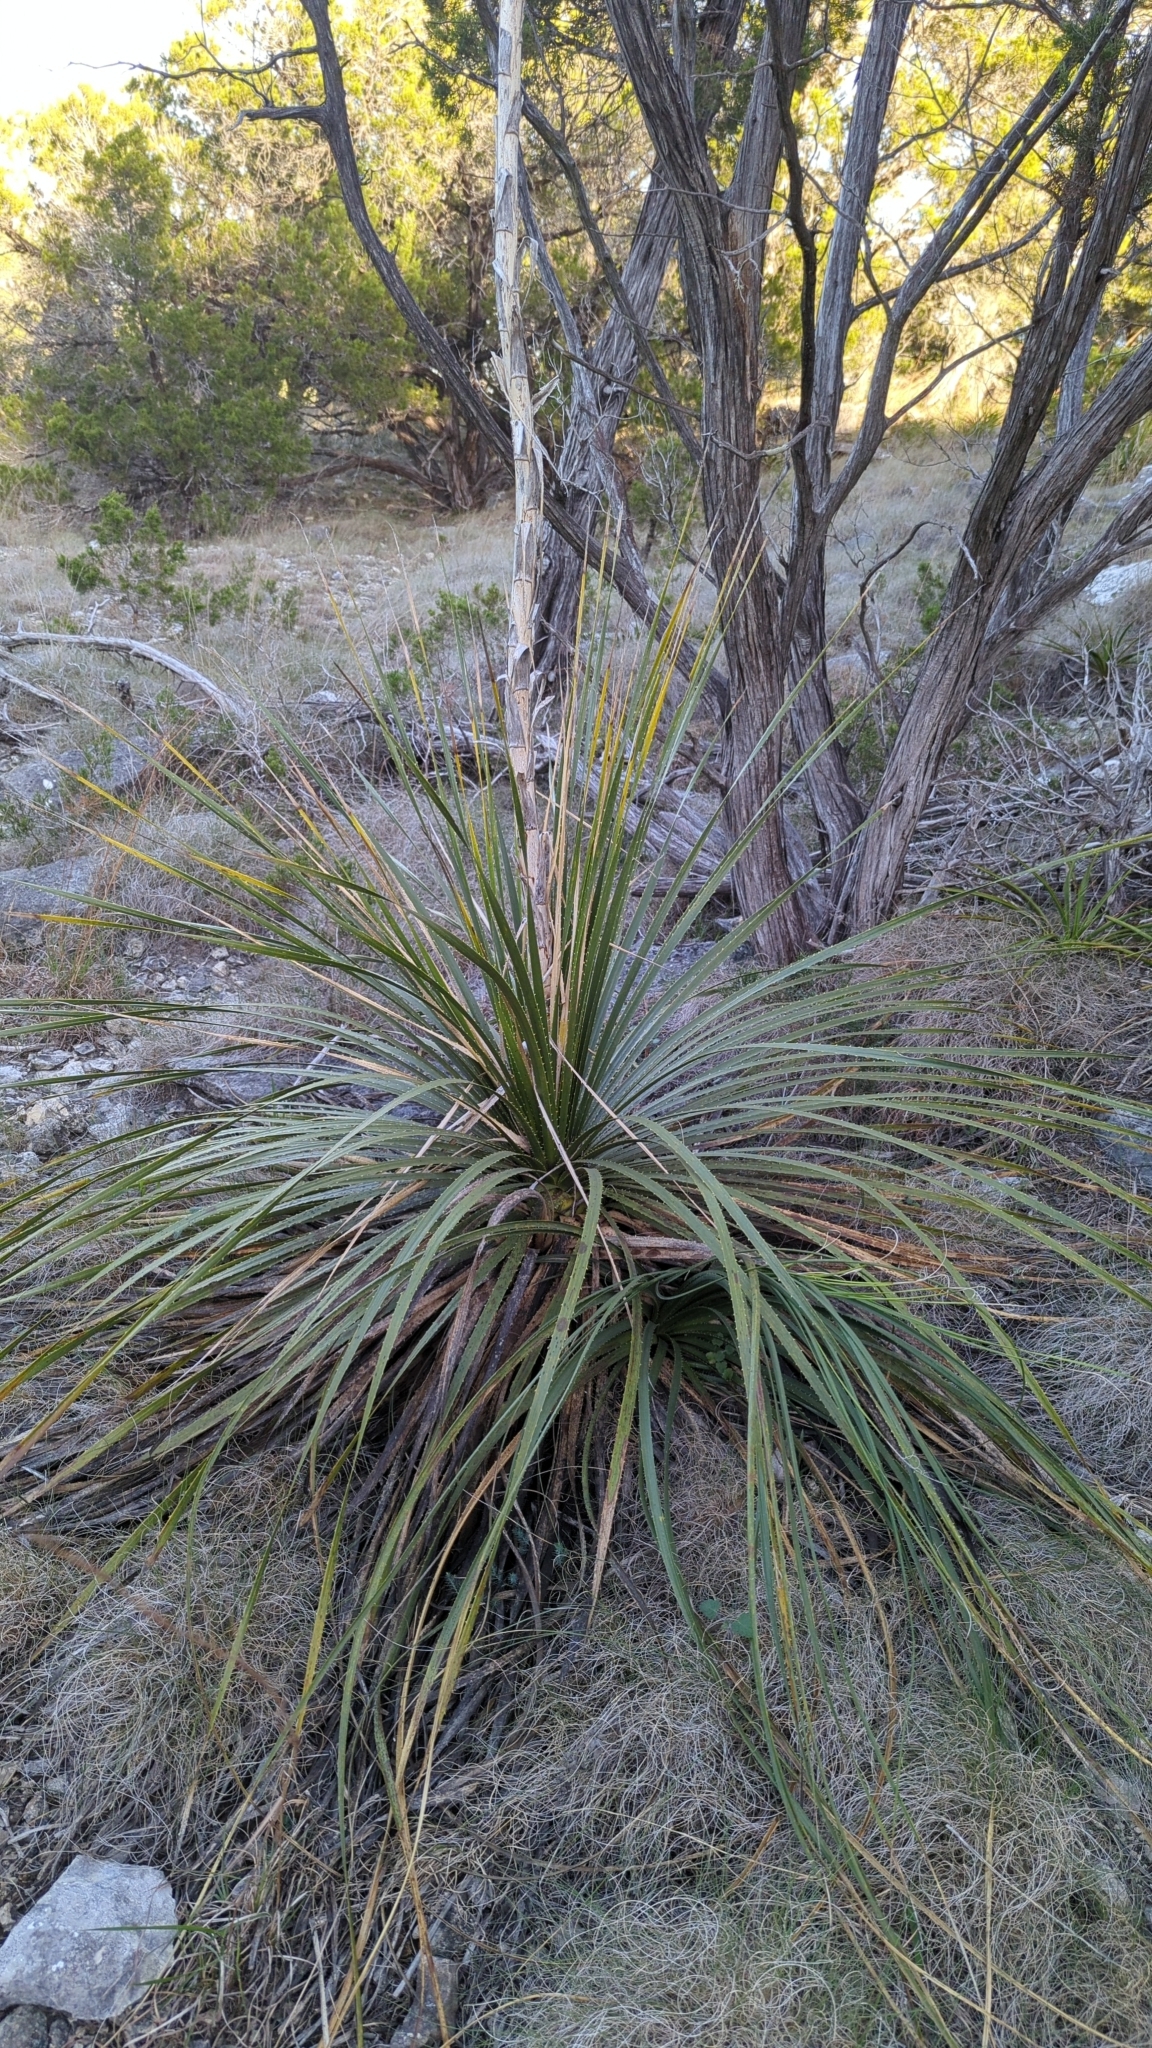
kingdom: Plantae
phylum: Tracheophyta
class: Liliopsida
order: Asparagales
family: Asparagaceae
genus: Dasylirion
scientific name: Dasylirion texanum
